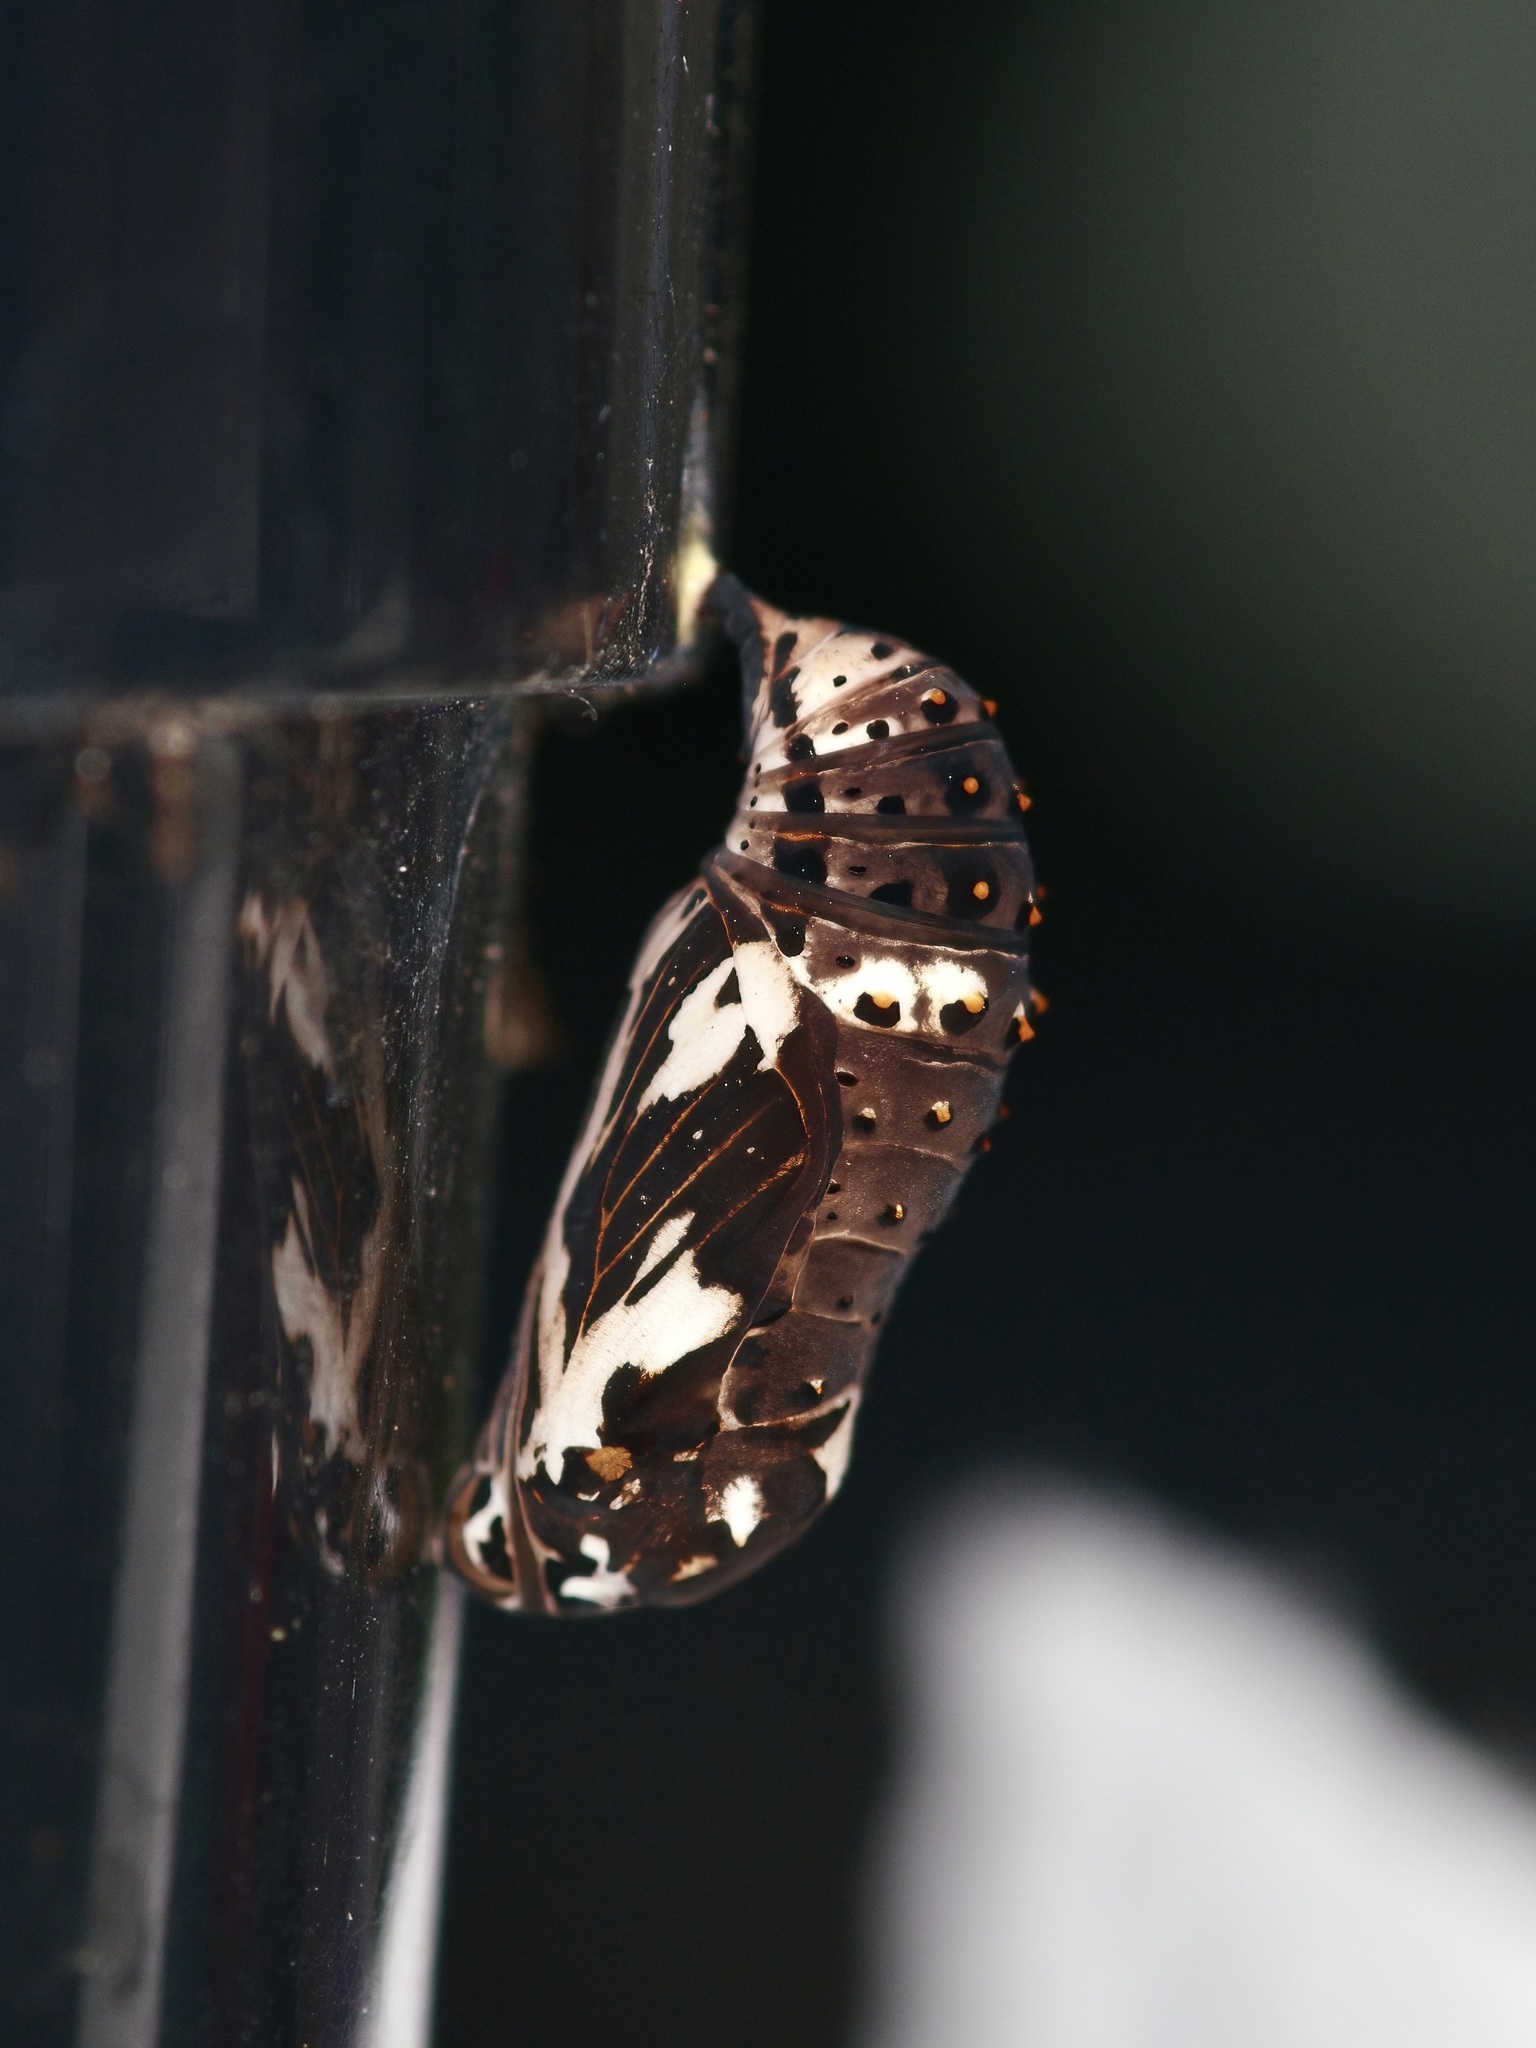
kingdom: Animalia
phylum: Arthropoda
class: Insecta
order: Lepidoptera
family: Nymphalidae
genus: Chlosyne
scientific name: Chlosyne lacinia
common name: Bordered patch
